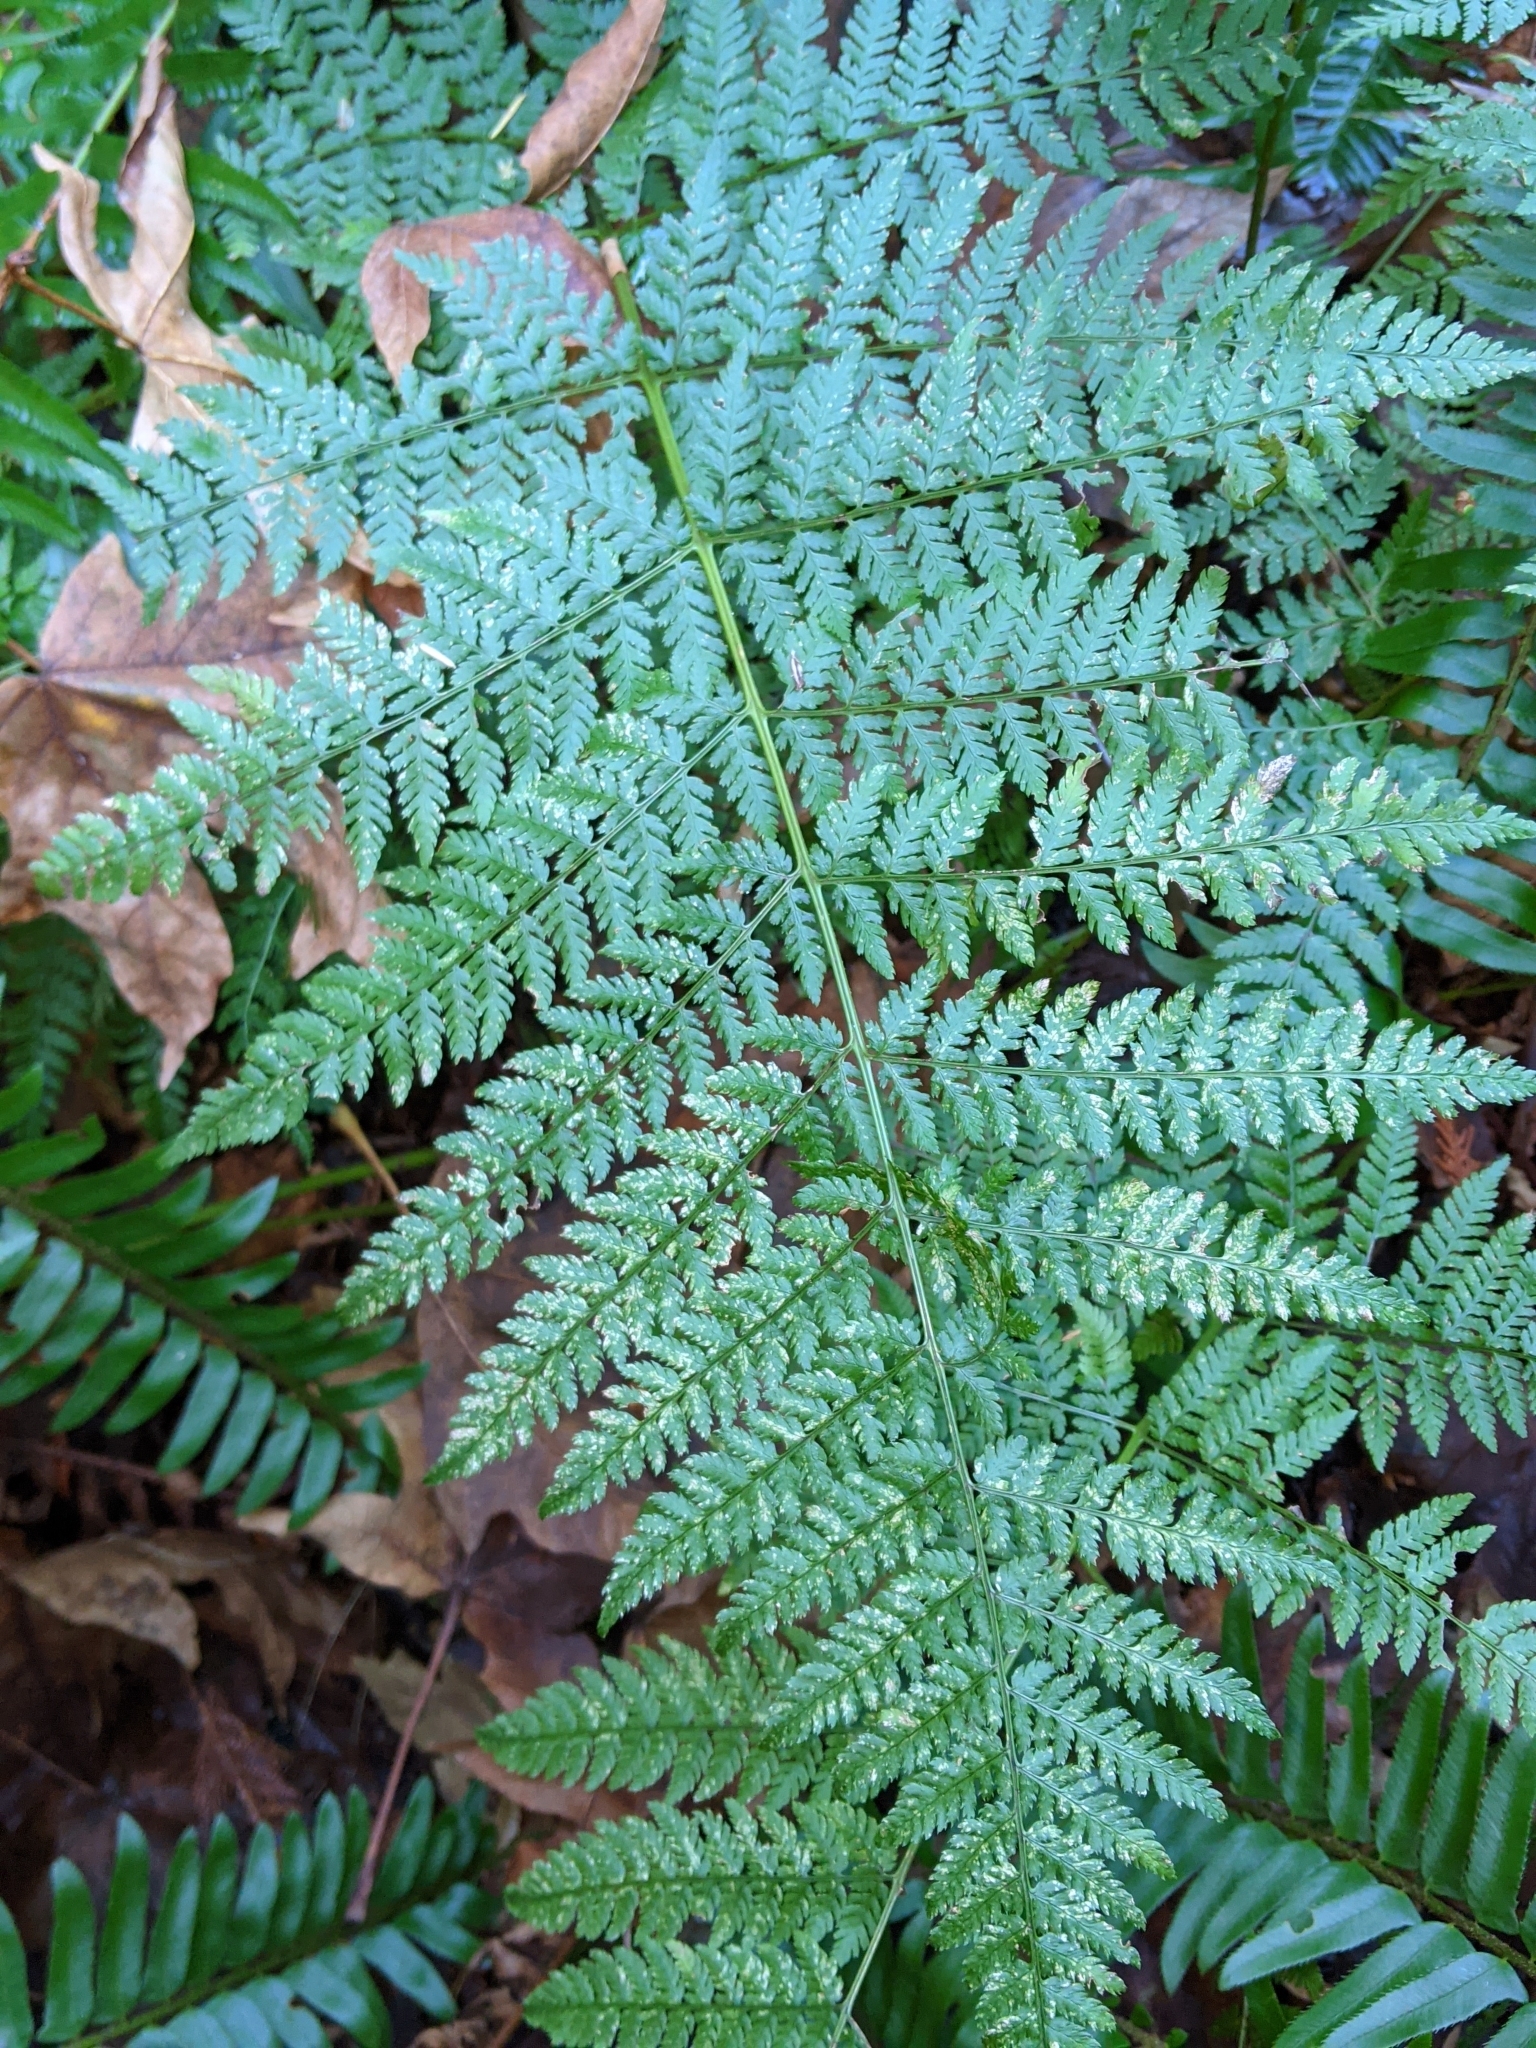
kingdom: Plantae
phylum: Tracheophyta
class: Polypodiopsida
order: Polypodiales
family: Dryopteridaceae
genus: Dryopteris
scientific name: Dryopteris expansa
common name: Northern buckler fern
